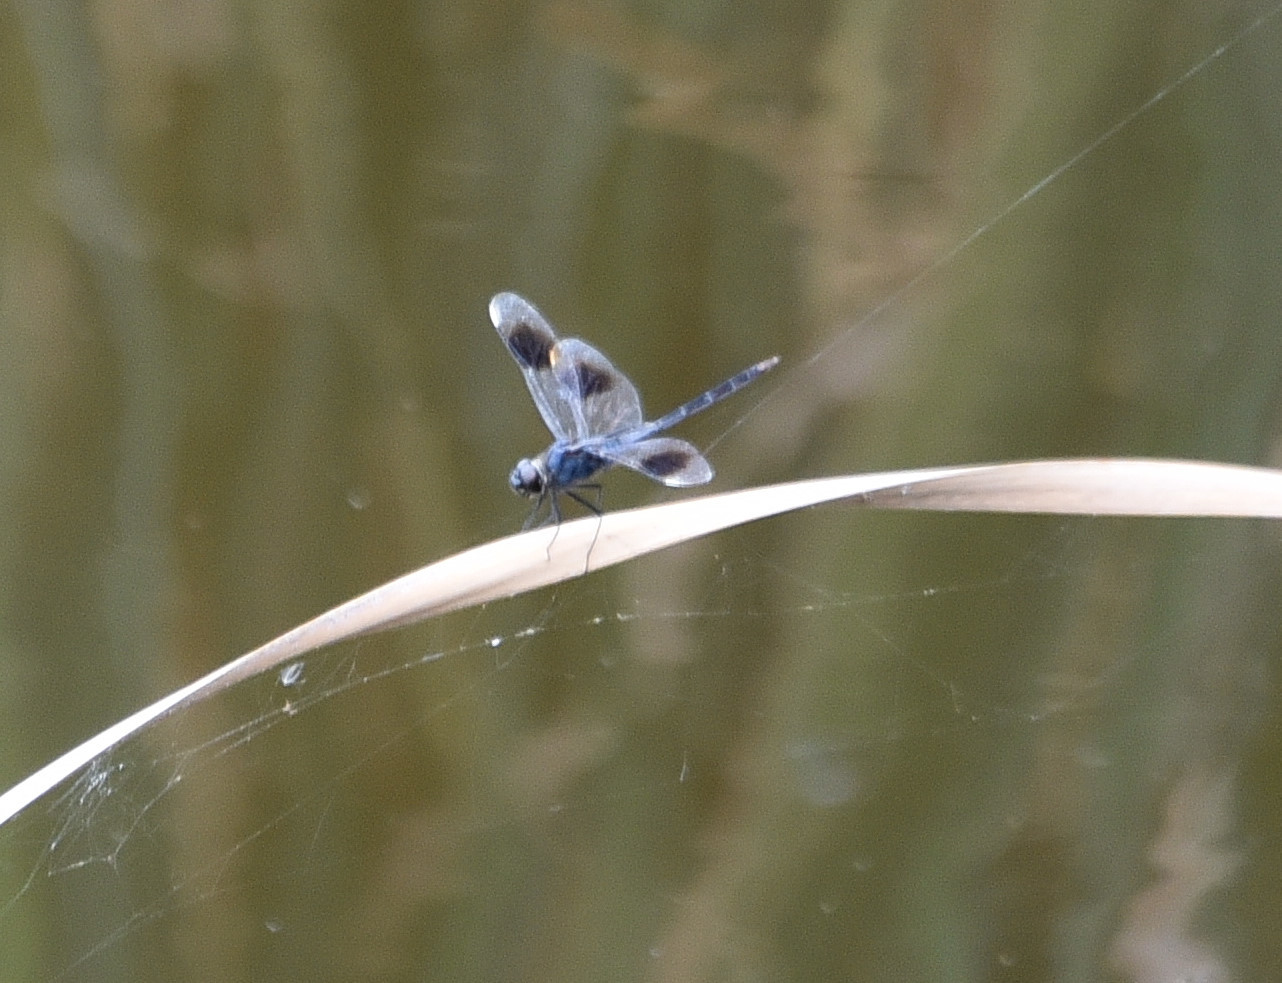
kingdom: Animalia
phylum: Arthropoda
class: Insecta
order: Odonata
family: Libellulidae
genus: Brachymesia
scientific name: Brachymesia gravida
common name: Four-spotted pennant
